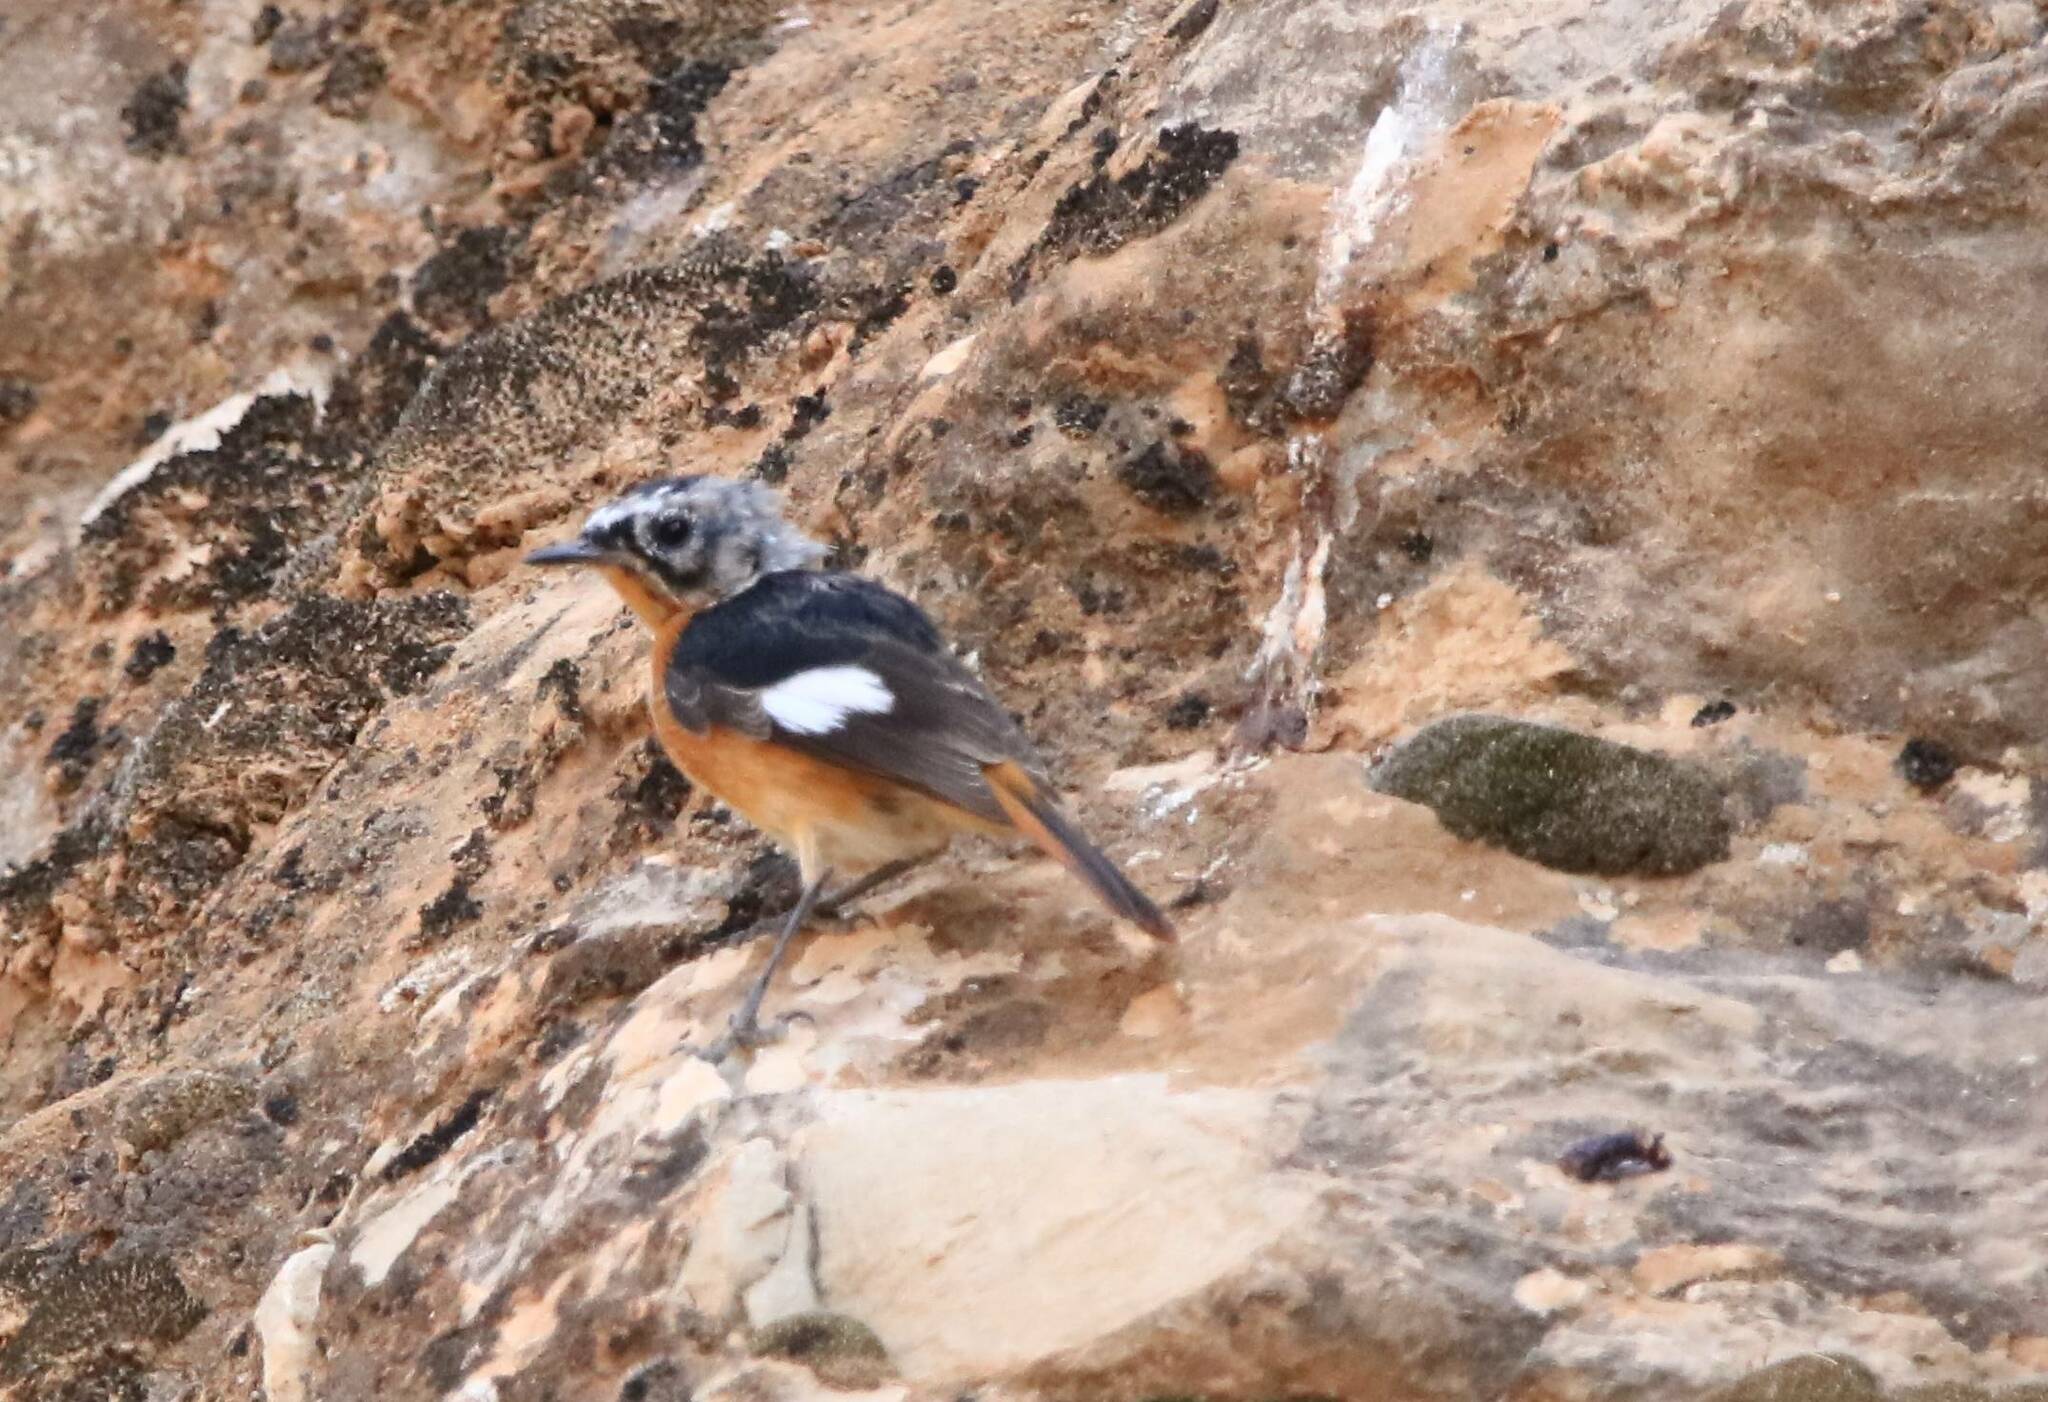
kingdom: Animalia
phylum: Chordata
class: Aves
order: Passeriformes
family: Muscicapidae
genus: Phoenicurus
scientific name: Phoenicurus moussieri
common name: Moussier's redstart
